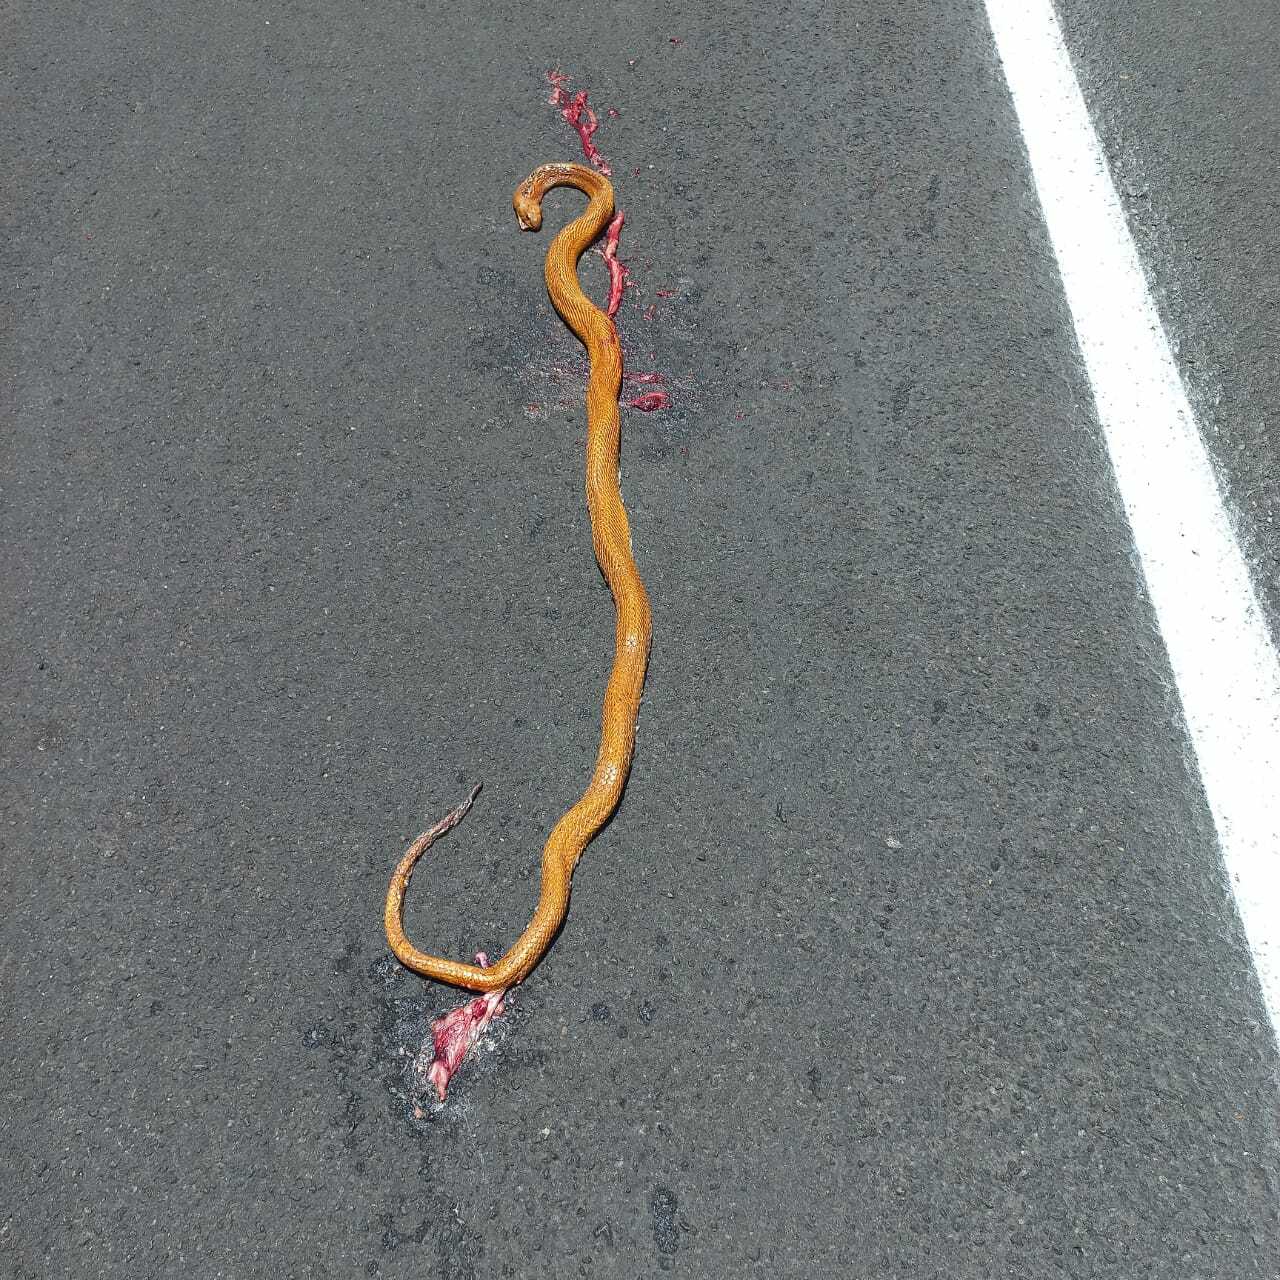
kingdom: Animalia
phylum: Chordata
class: Squamata
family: Elapidae
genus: Naja
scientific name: Naja nivea
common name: Cape cobra
